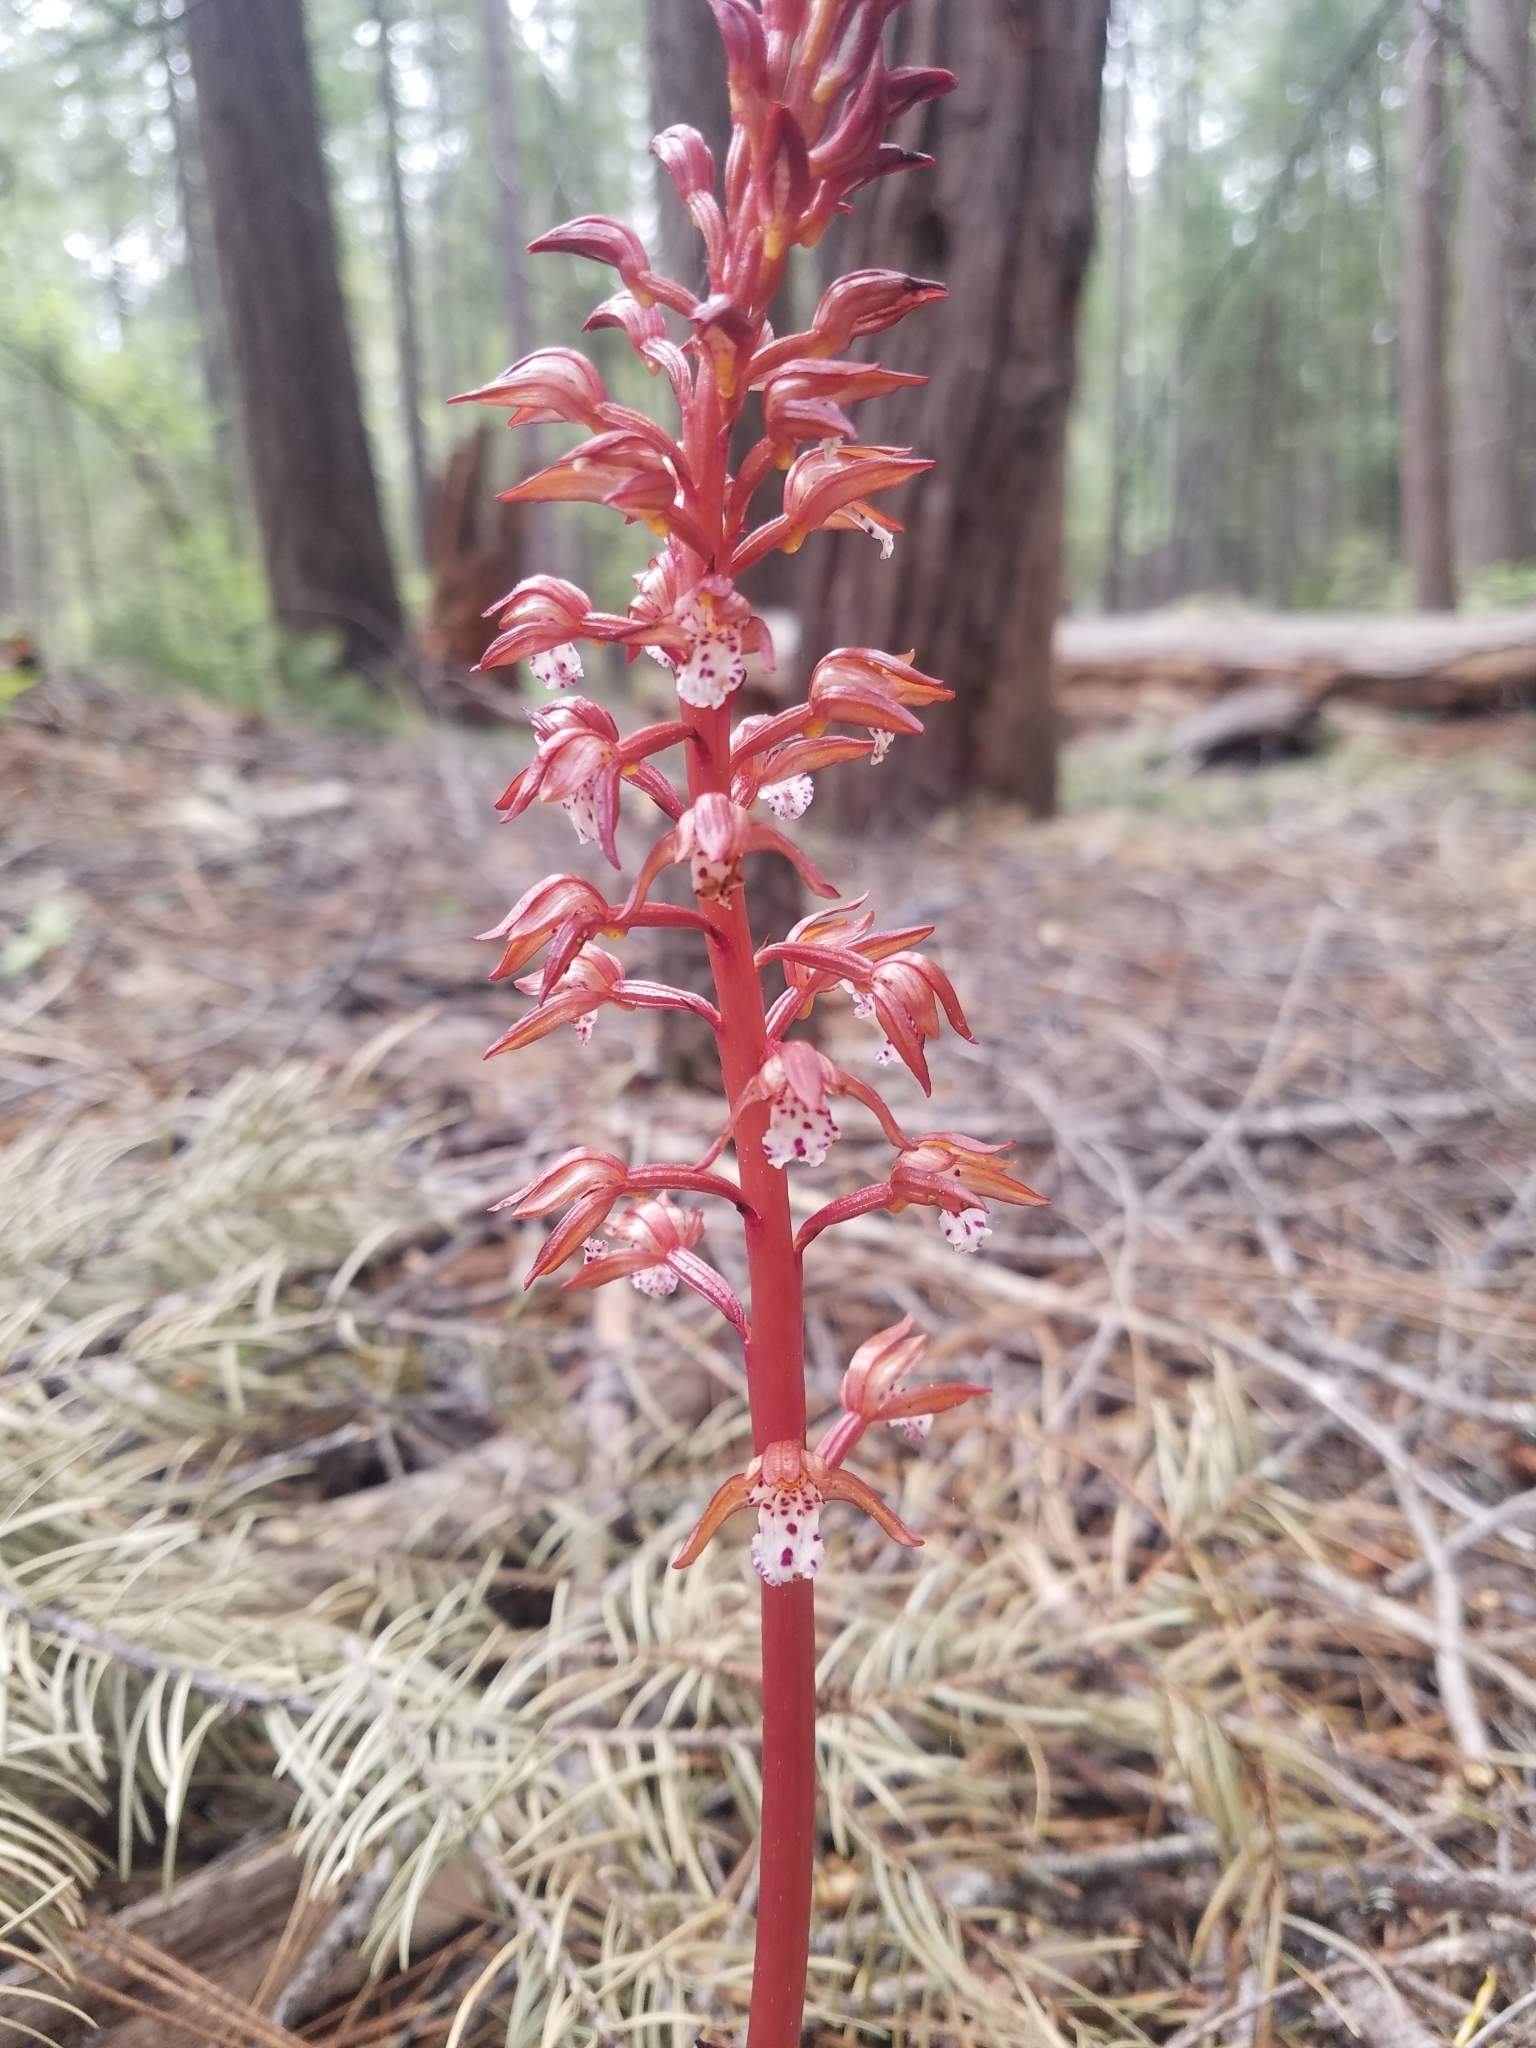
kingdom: Plantae
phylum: Tracheophyta
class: Liliopsida
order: Asparagales
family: Orchidaceae
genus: Corallorhiza
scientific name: Corallorhiza maculata
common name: Spotted coralroot
